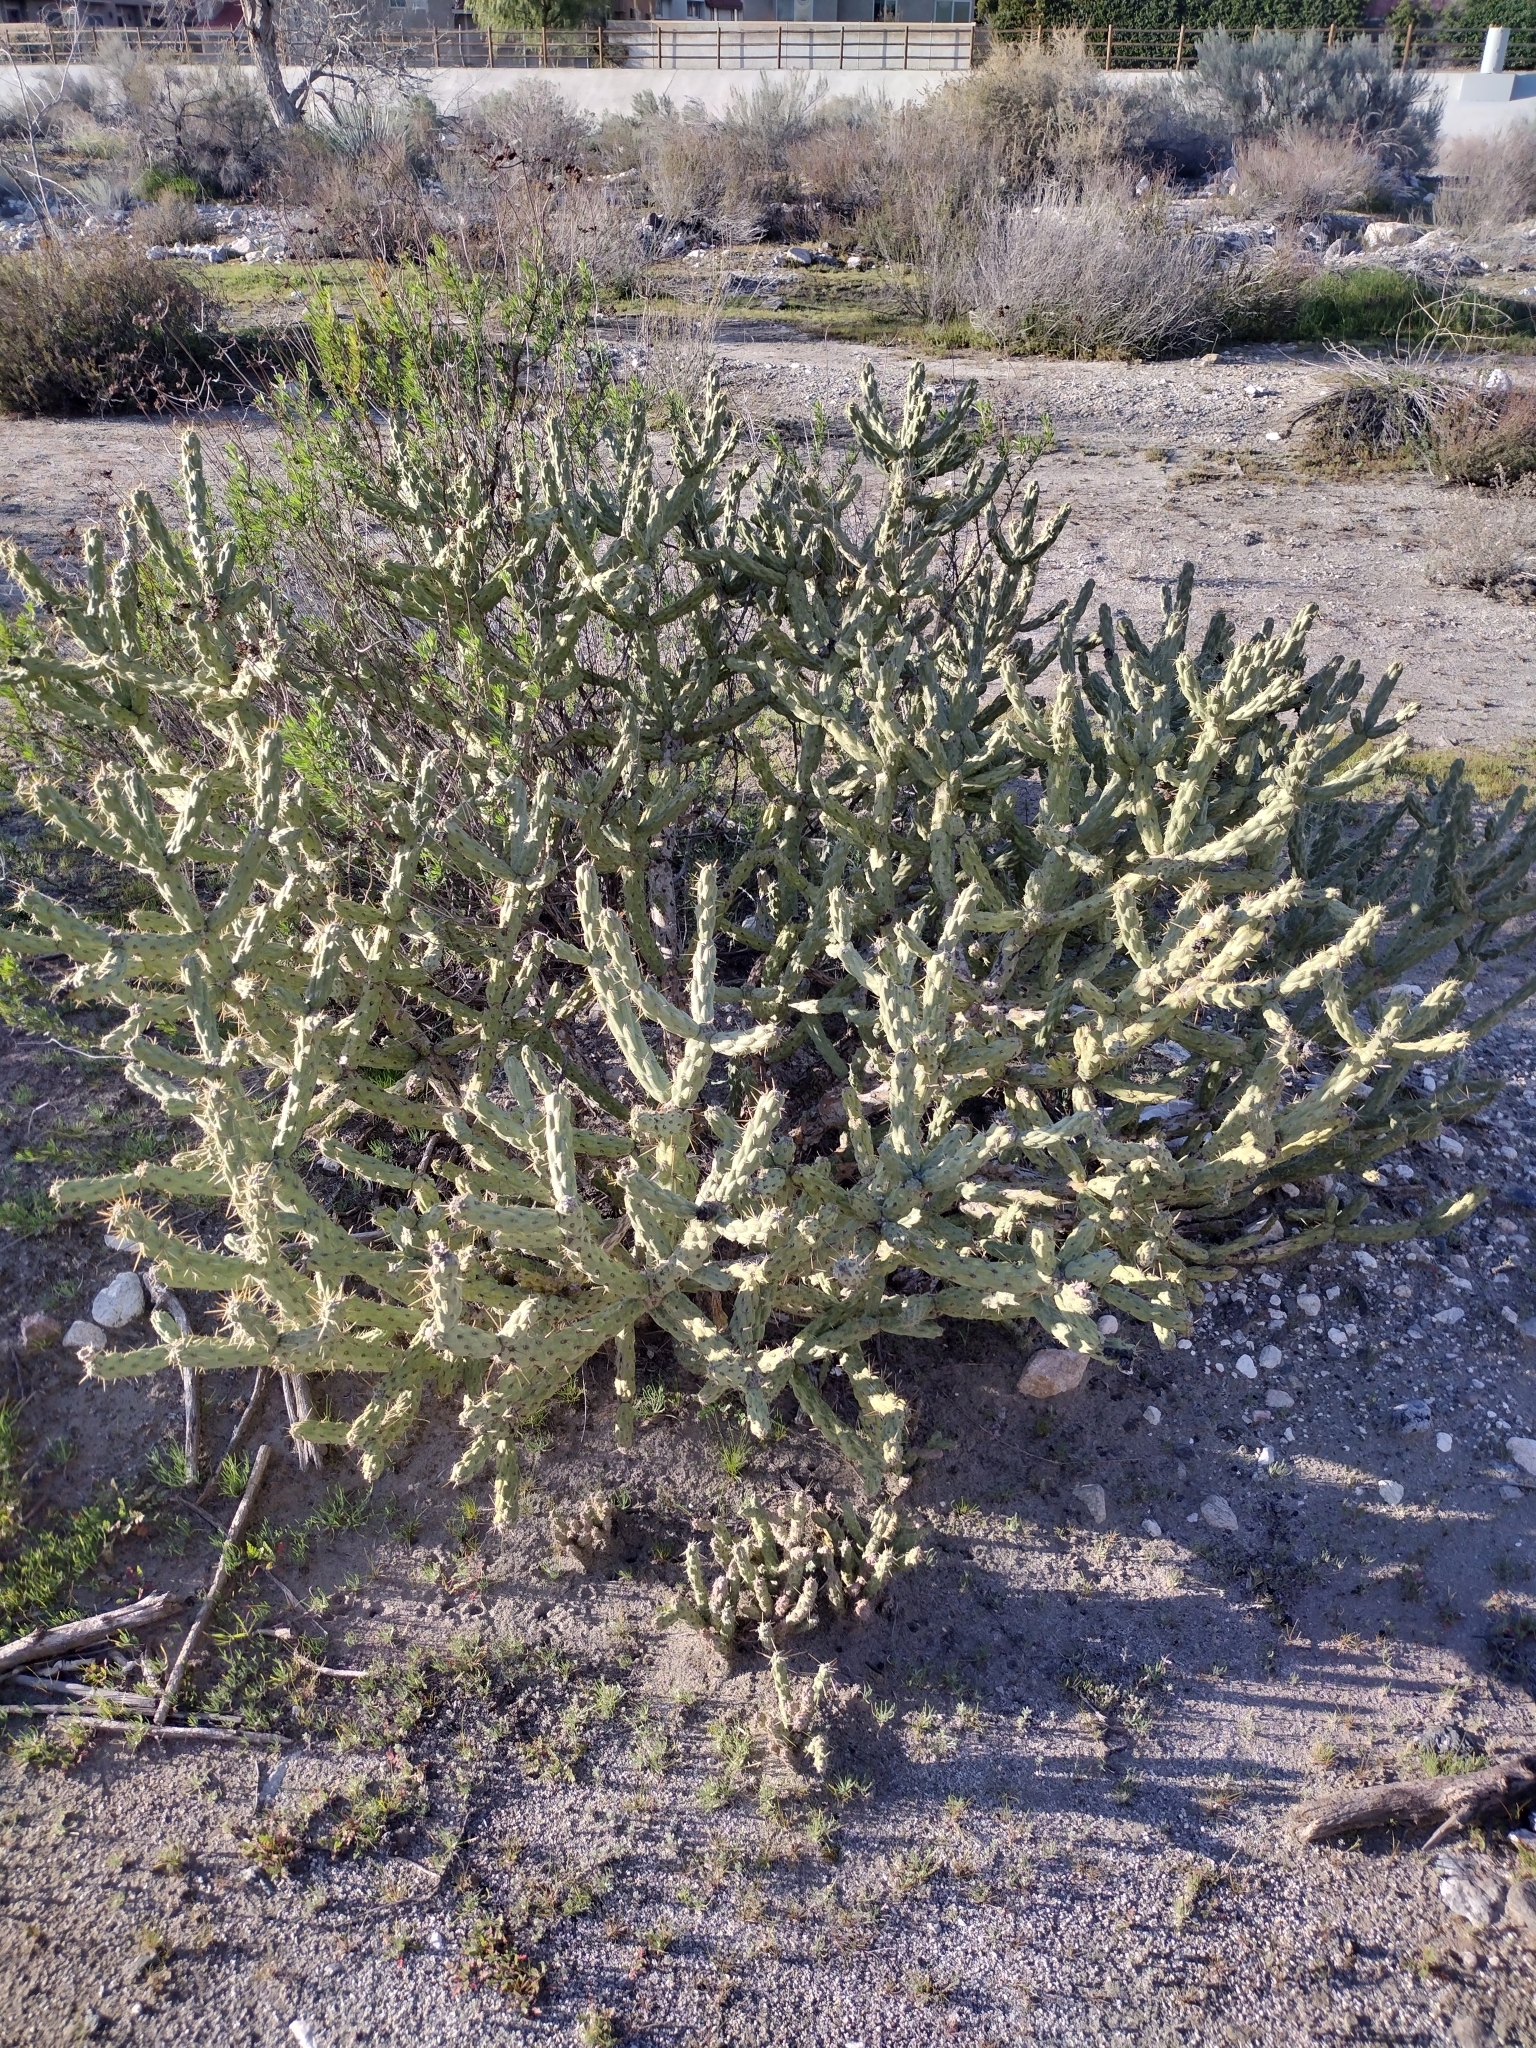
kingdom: Plantae
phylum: Tracheophyta
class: Magnoliopsida
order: Caryophyllales
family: Cactaceae
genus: Cylindropuntia
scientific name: Cylindropuntia bernardina
